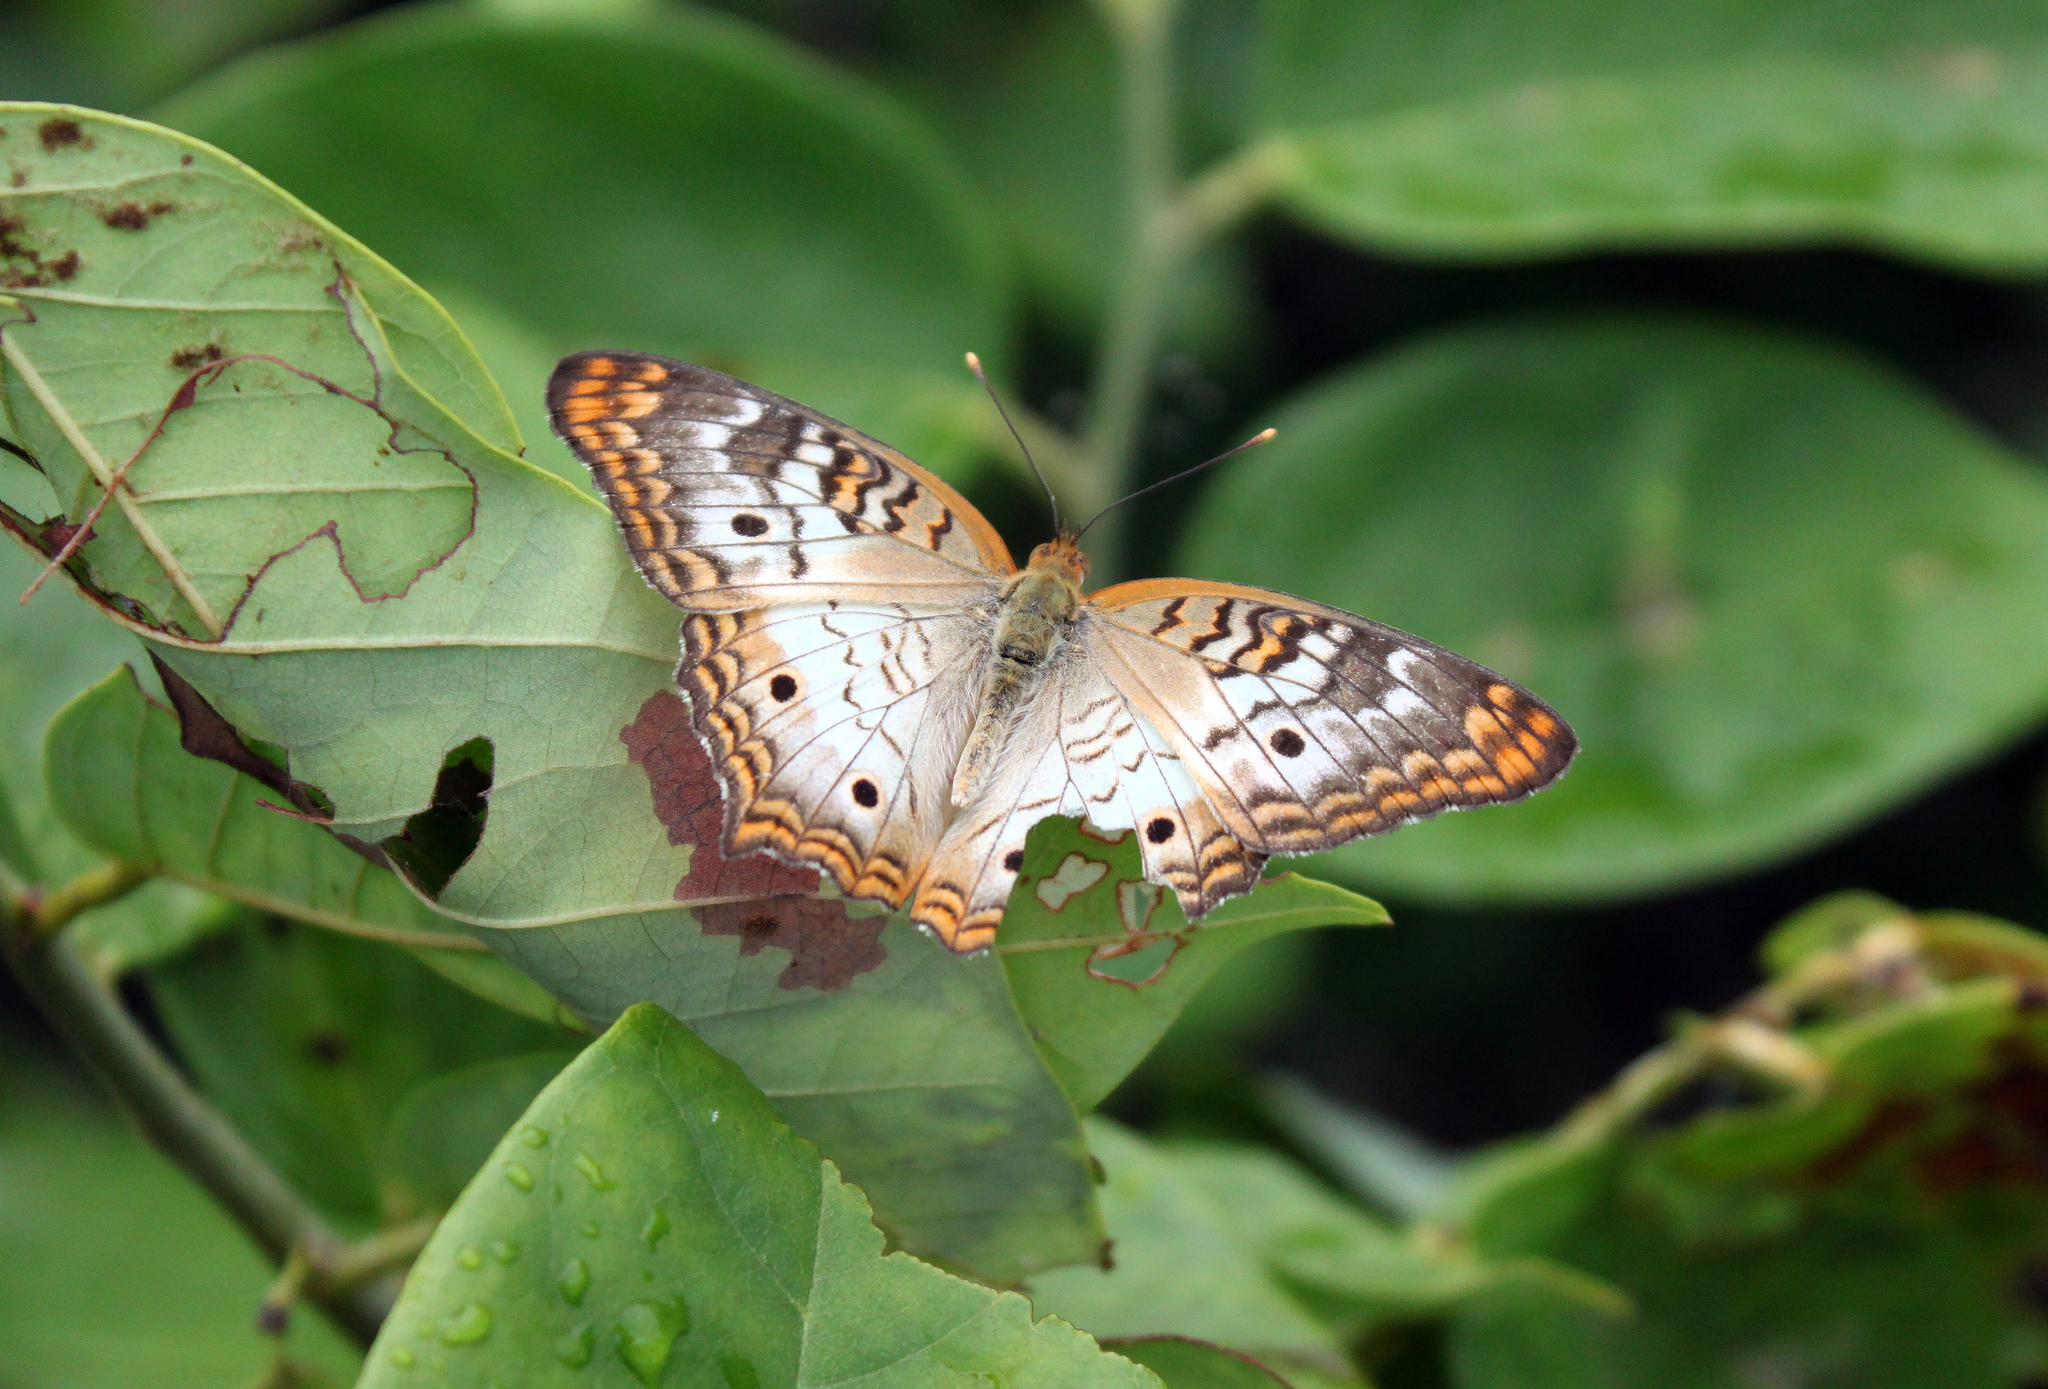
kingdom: Animalia
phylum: Arthropoda
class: Insecta
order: Lepidoptera
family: Nymphalidae
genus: Anartia
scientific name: Anartia jatrophae
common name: White peacock
